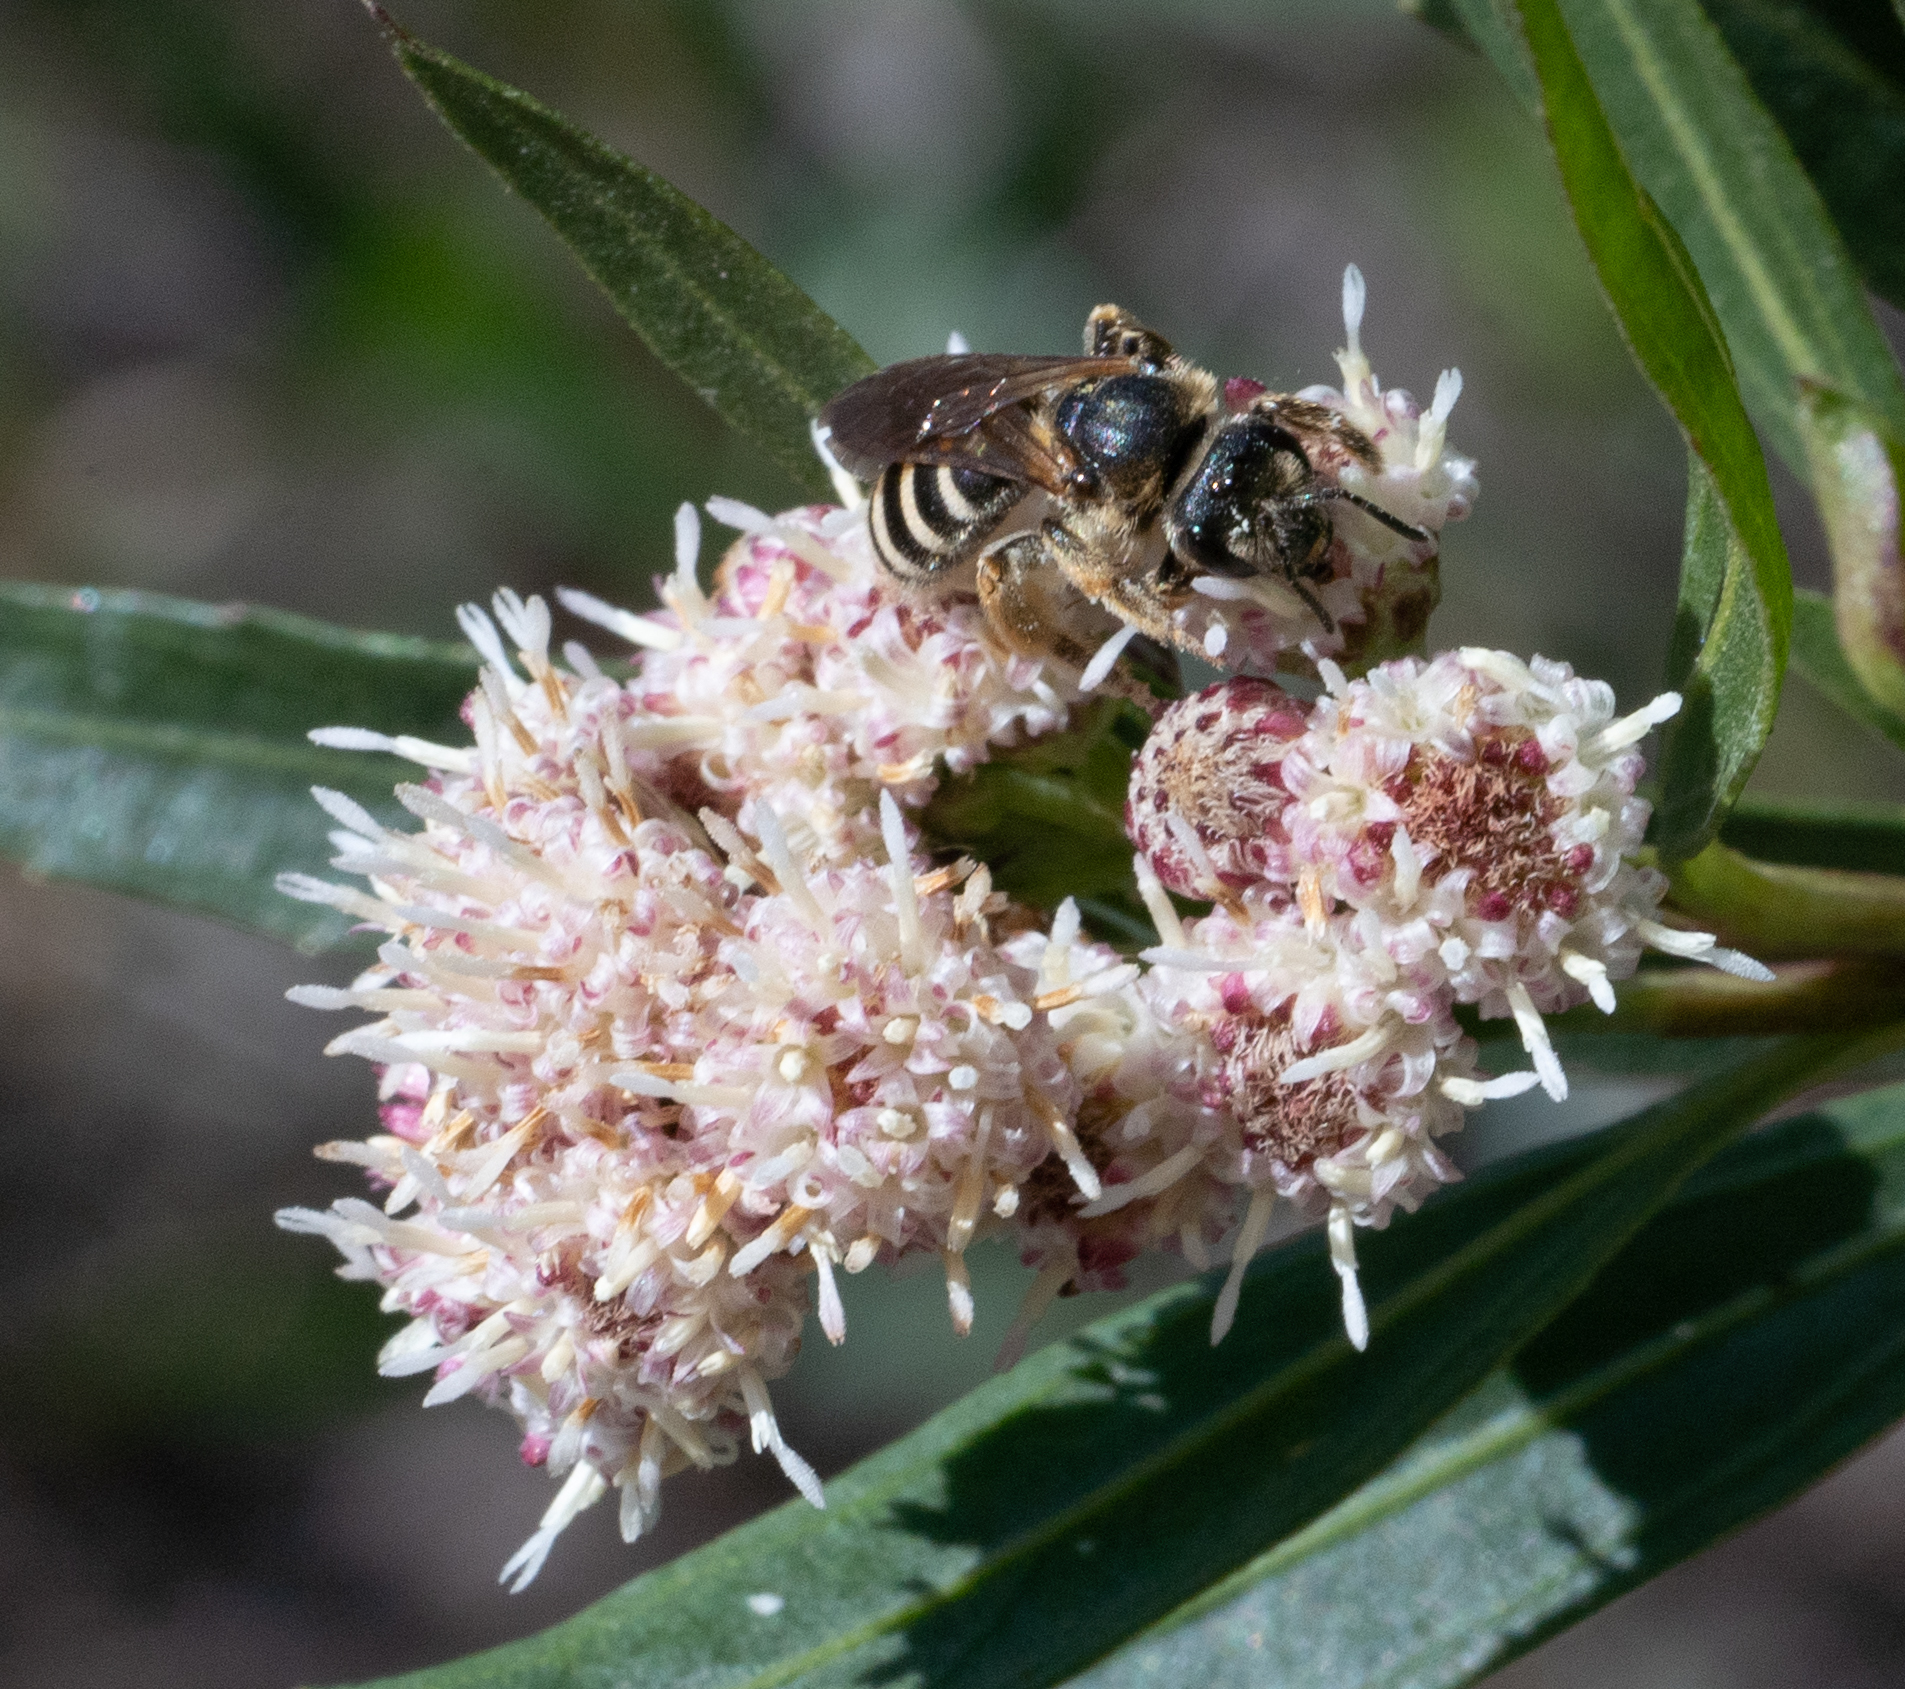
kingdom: Animalia
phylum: Arthropoda
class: Insecta
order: Hymenoptera
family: Halictidae
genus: Halictus
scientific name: Halictus farinosus
